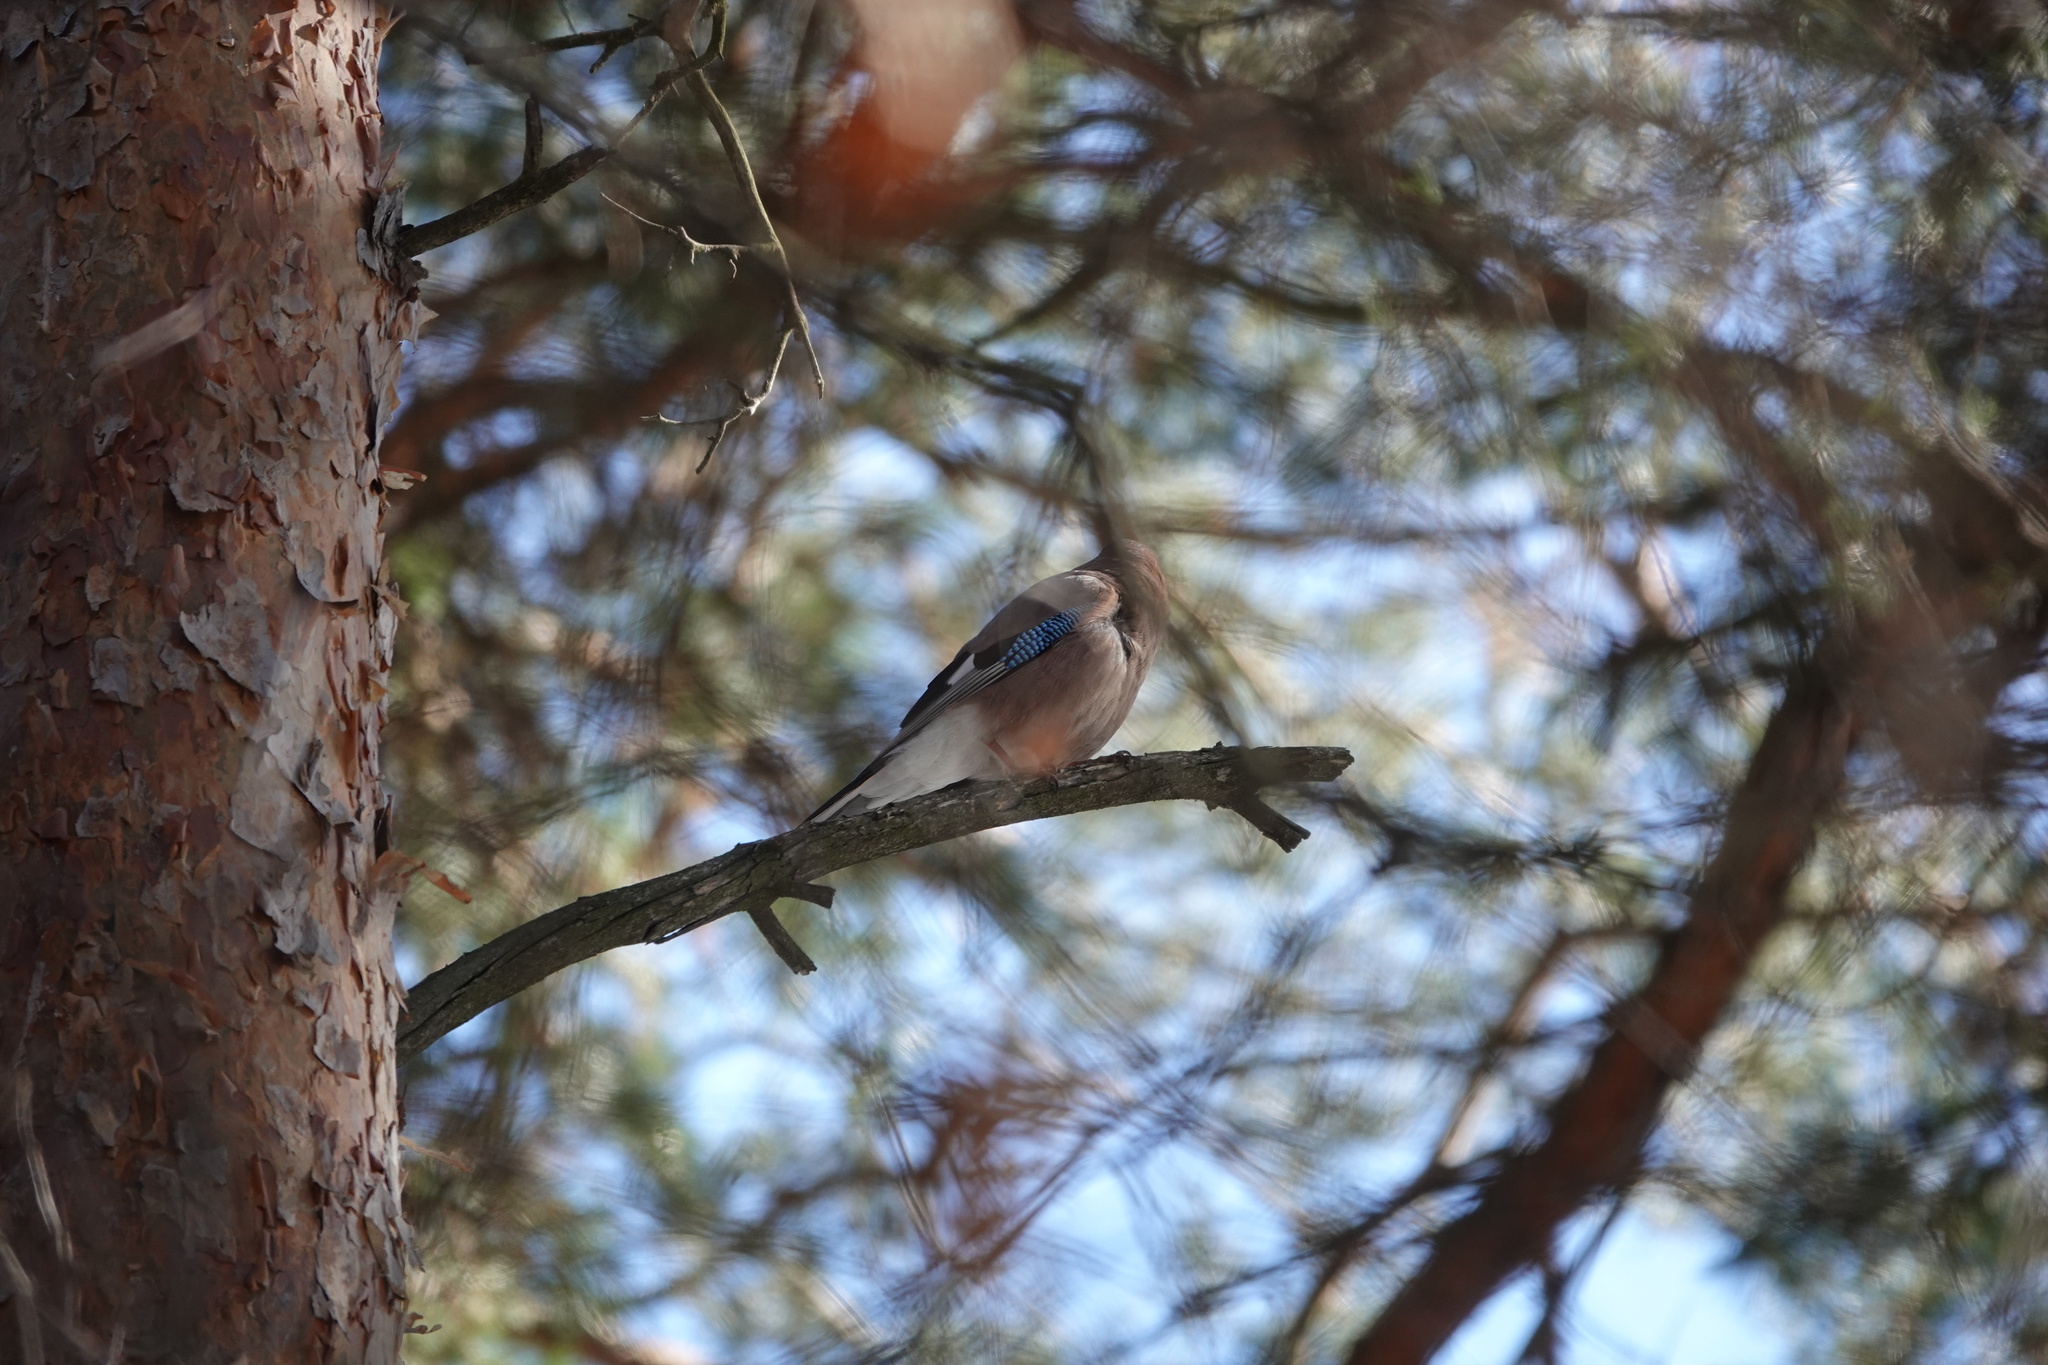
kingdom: Animalia
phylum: Chordata
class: Aves
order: Passeriformes
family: Corvidae
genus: Garrulus
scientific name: Garrulus glandarius
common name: Eurasian jay
